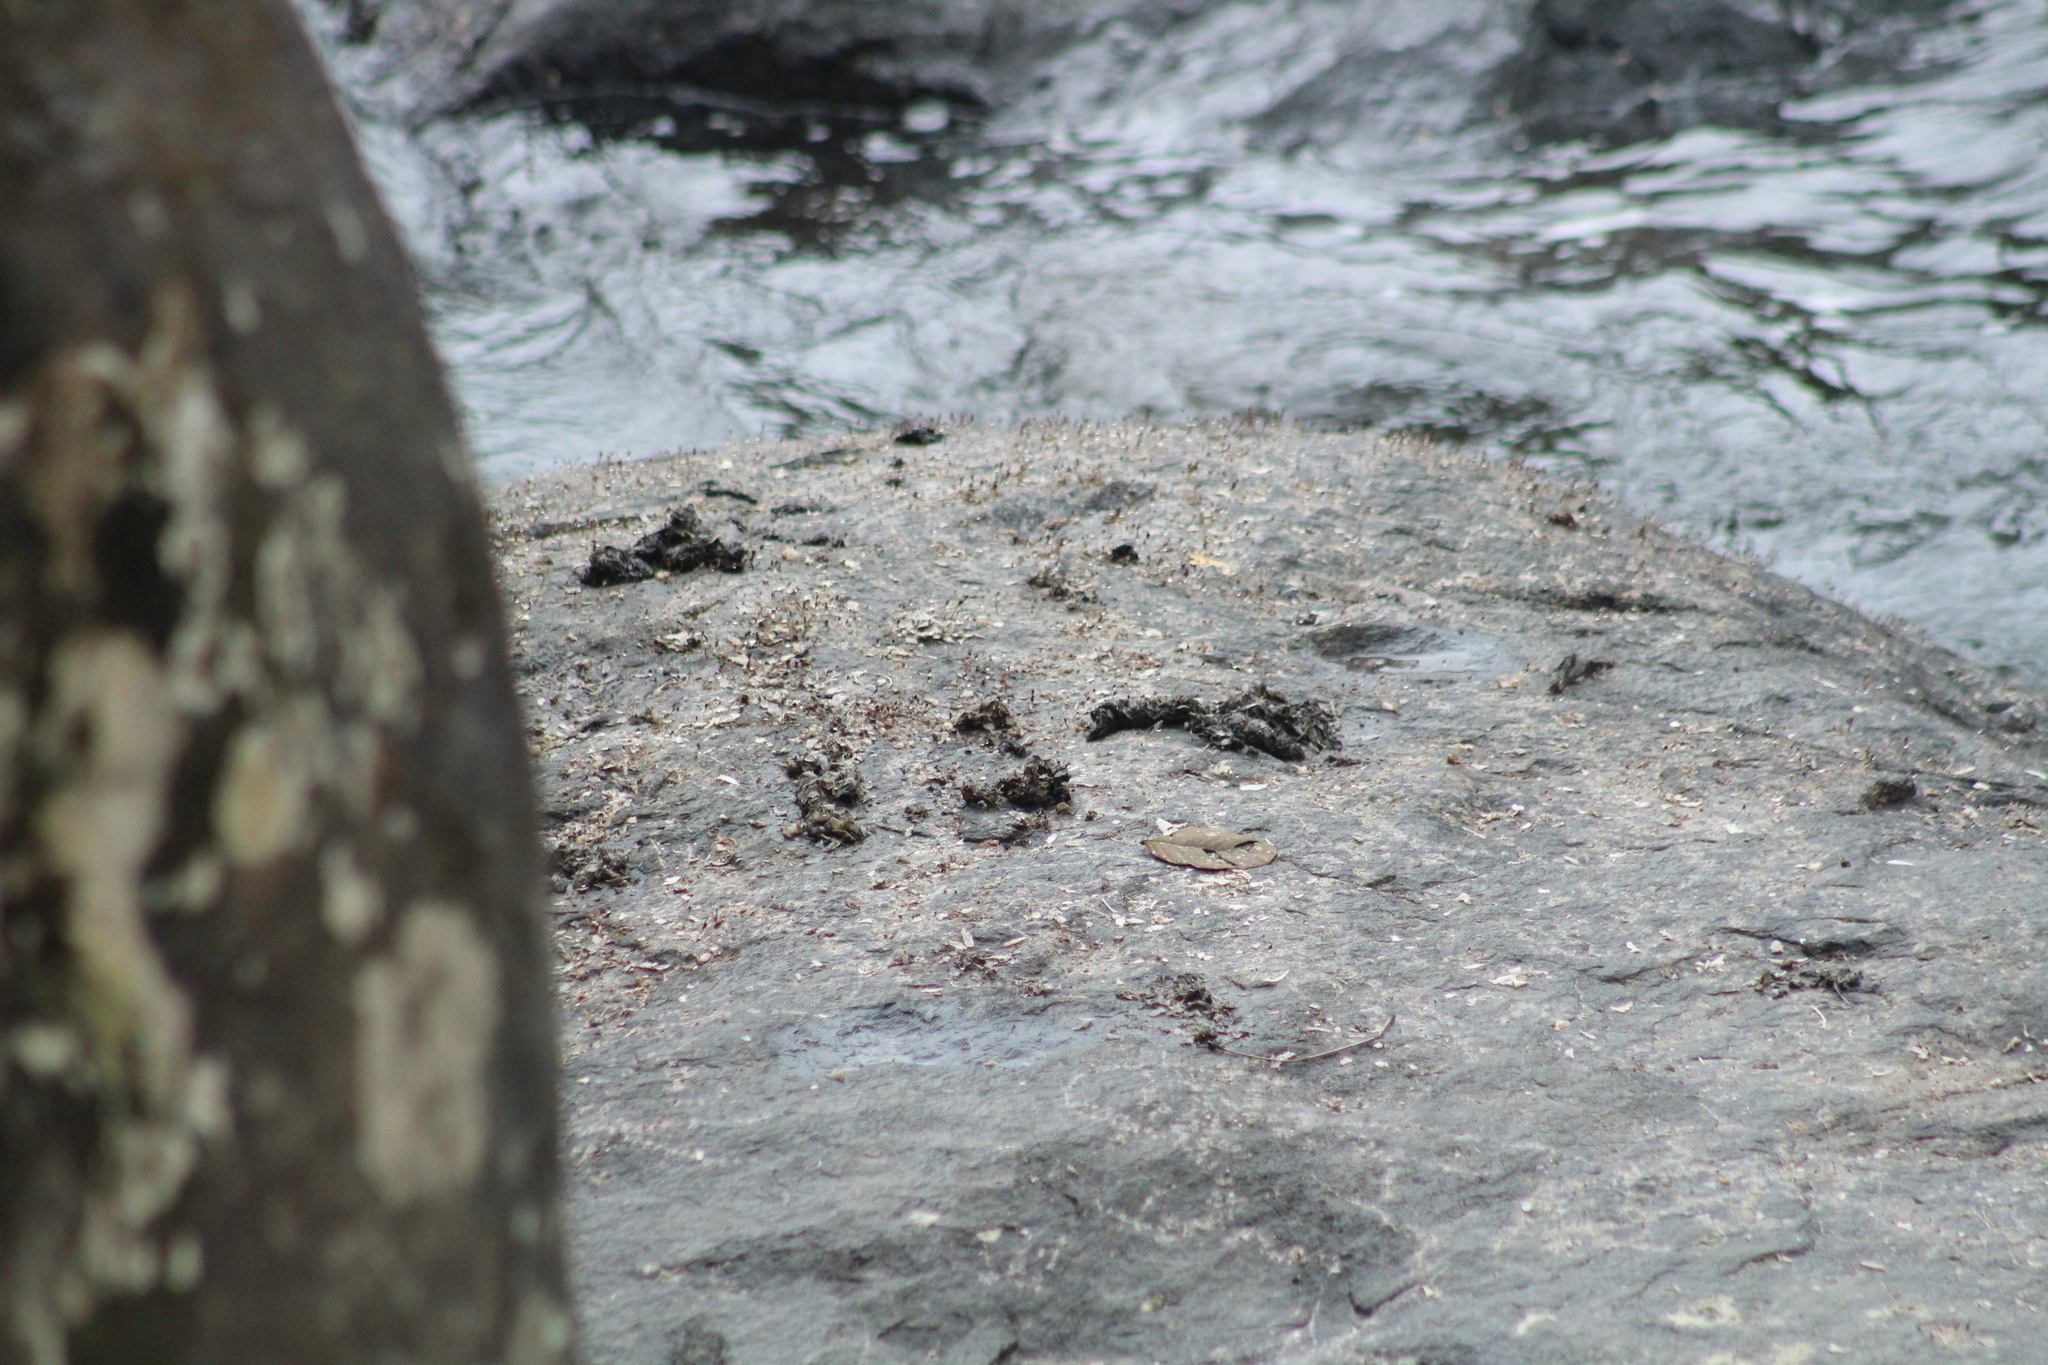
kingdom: Animalia
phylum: Chordata
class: Mammalia
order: Carnivora
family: Mustelidae
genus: Lontra
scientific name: Lontra longicaudis
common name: Neotropical otter
